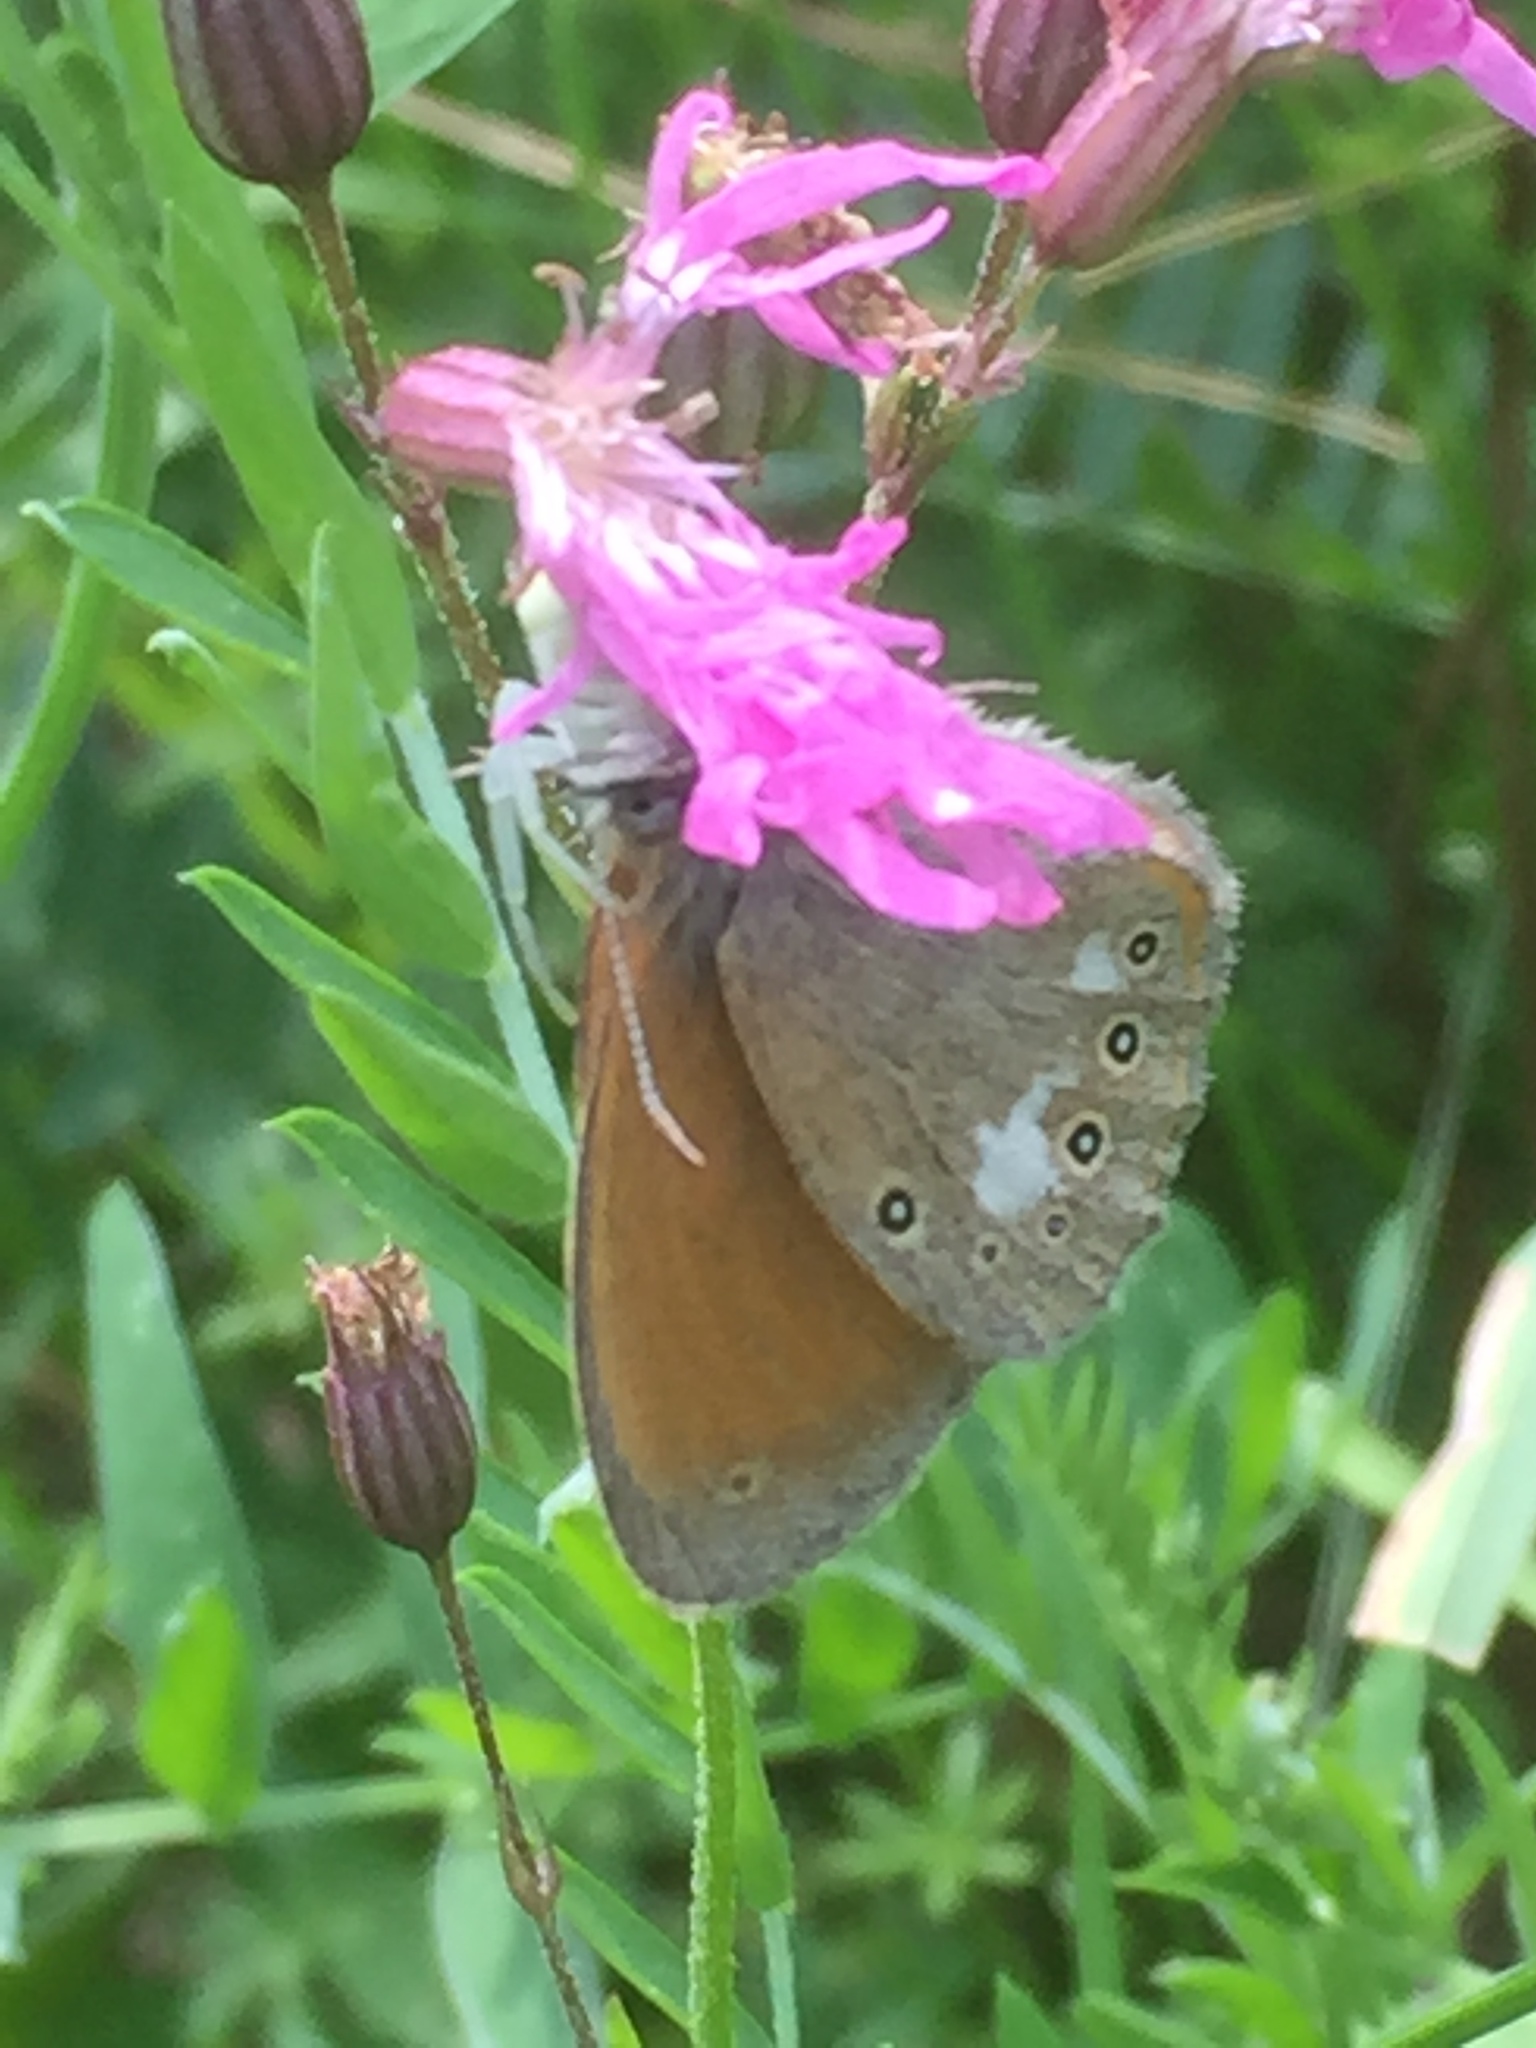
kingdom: Animalia
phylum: Arthropoda
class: Insecta
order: Lepidoptera
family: Nymphalidae
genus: Coenonympha
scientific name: Coenonympha iphis
